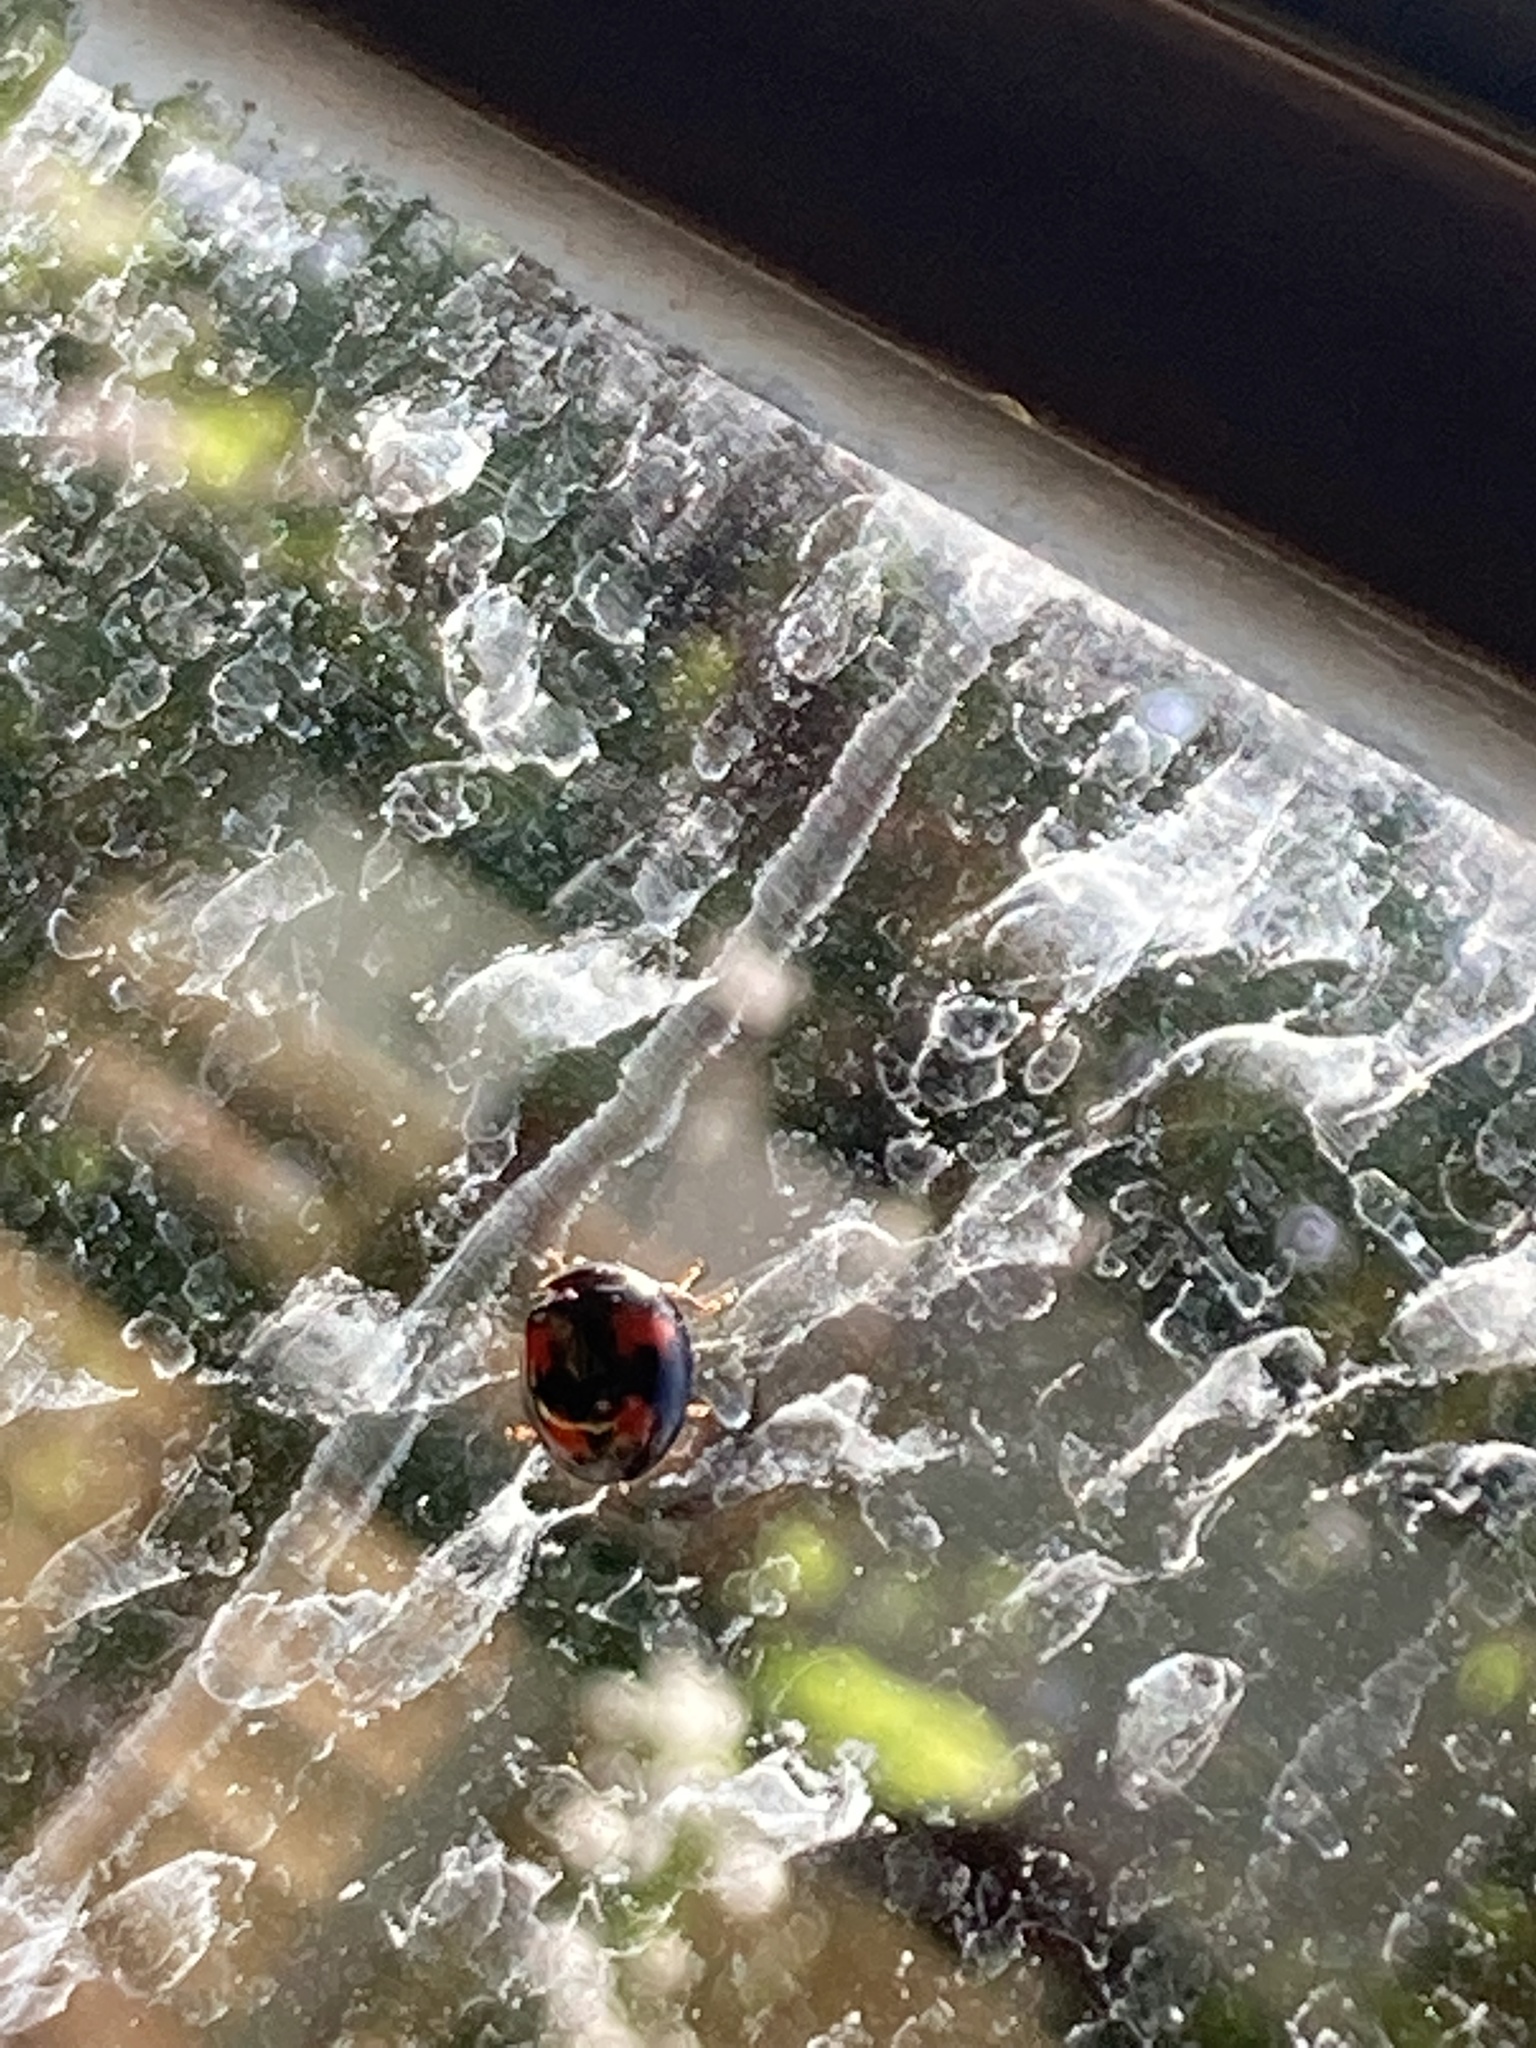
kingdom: Animalia
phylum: Arthropoda
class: Insecta
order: Coleoptera
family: Coccinellidae
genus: Harmonia
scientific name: Harmonia axyridis
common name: Harlequin ladybird
